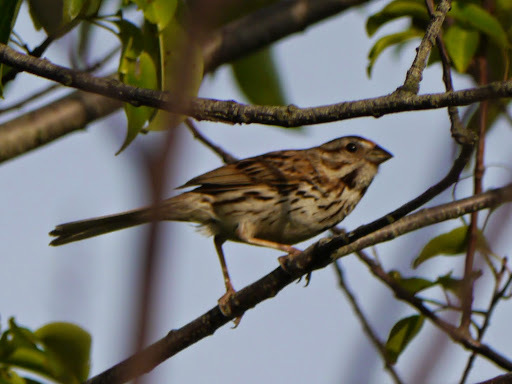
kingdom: Animalia
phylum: Chordata
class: Aves
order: Passeriformes
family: Passerellidae
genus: Melospiza
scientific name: Melospiza melodia
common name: Song sparrow
